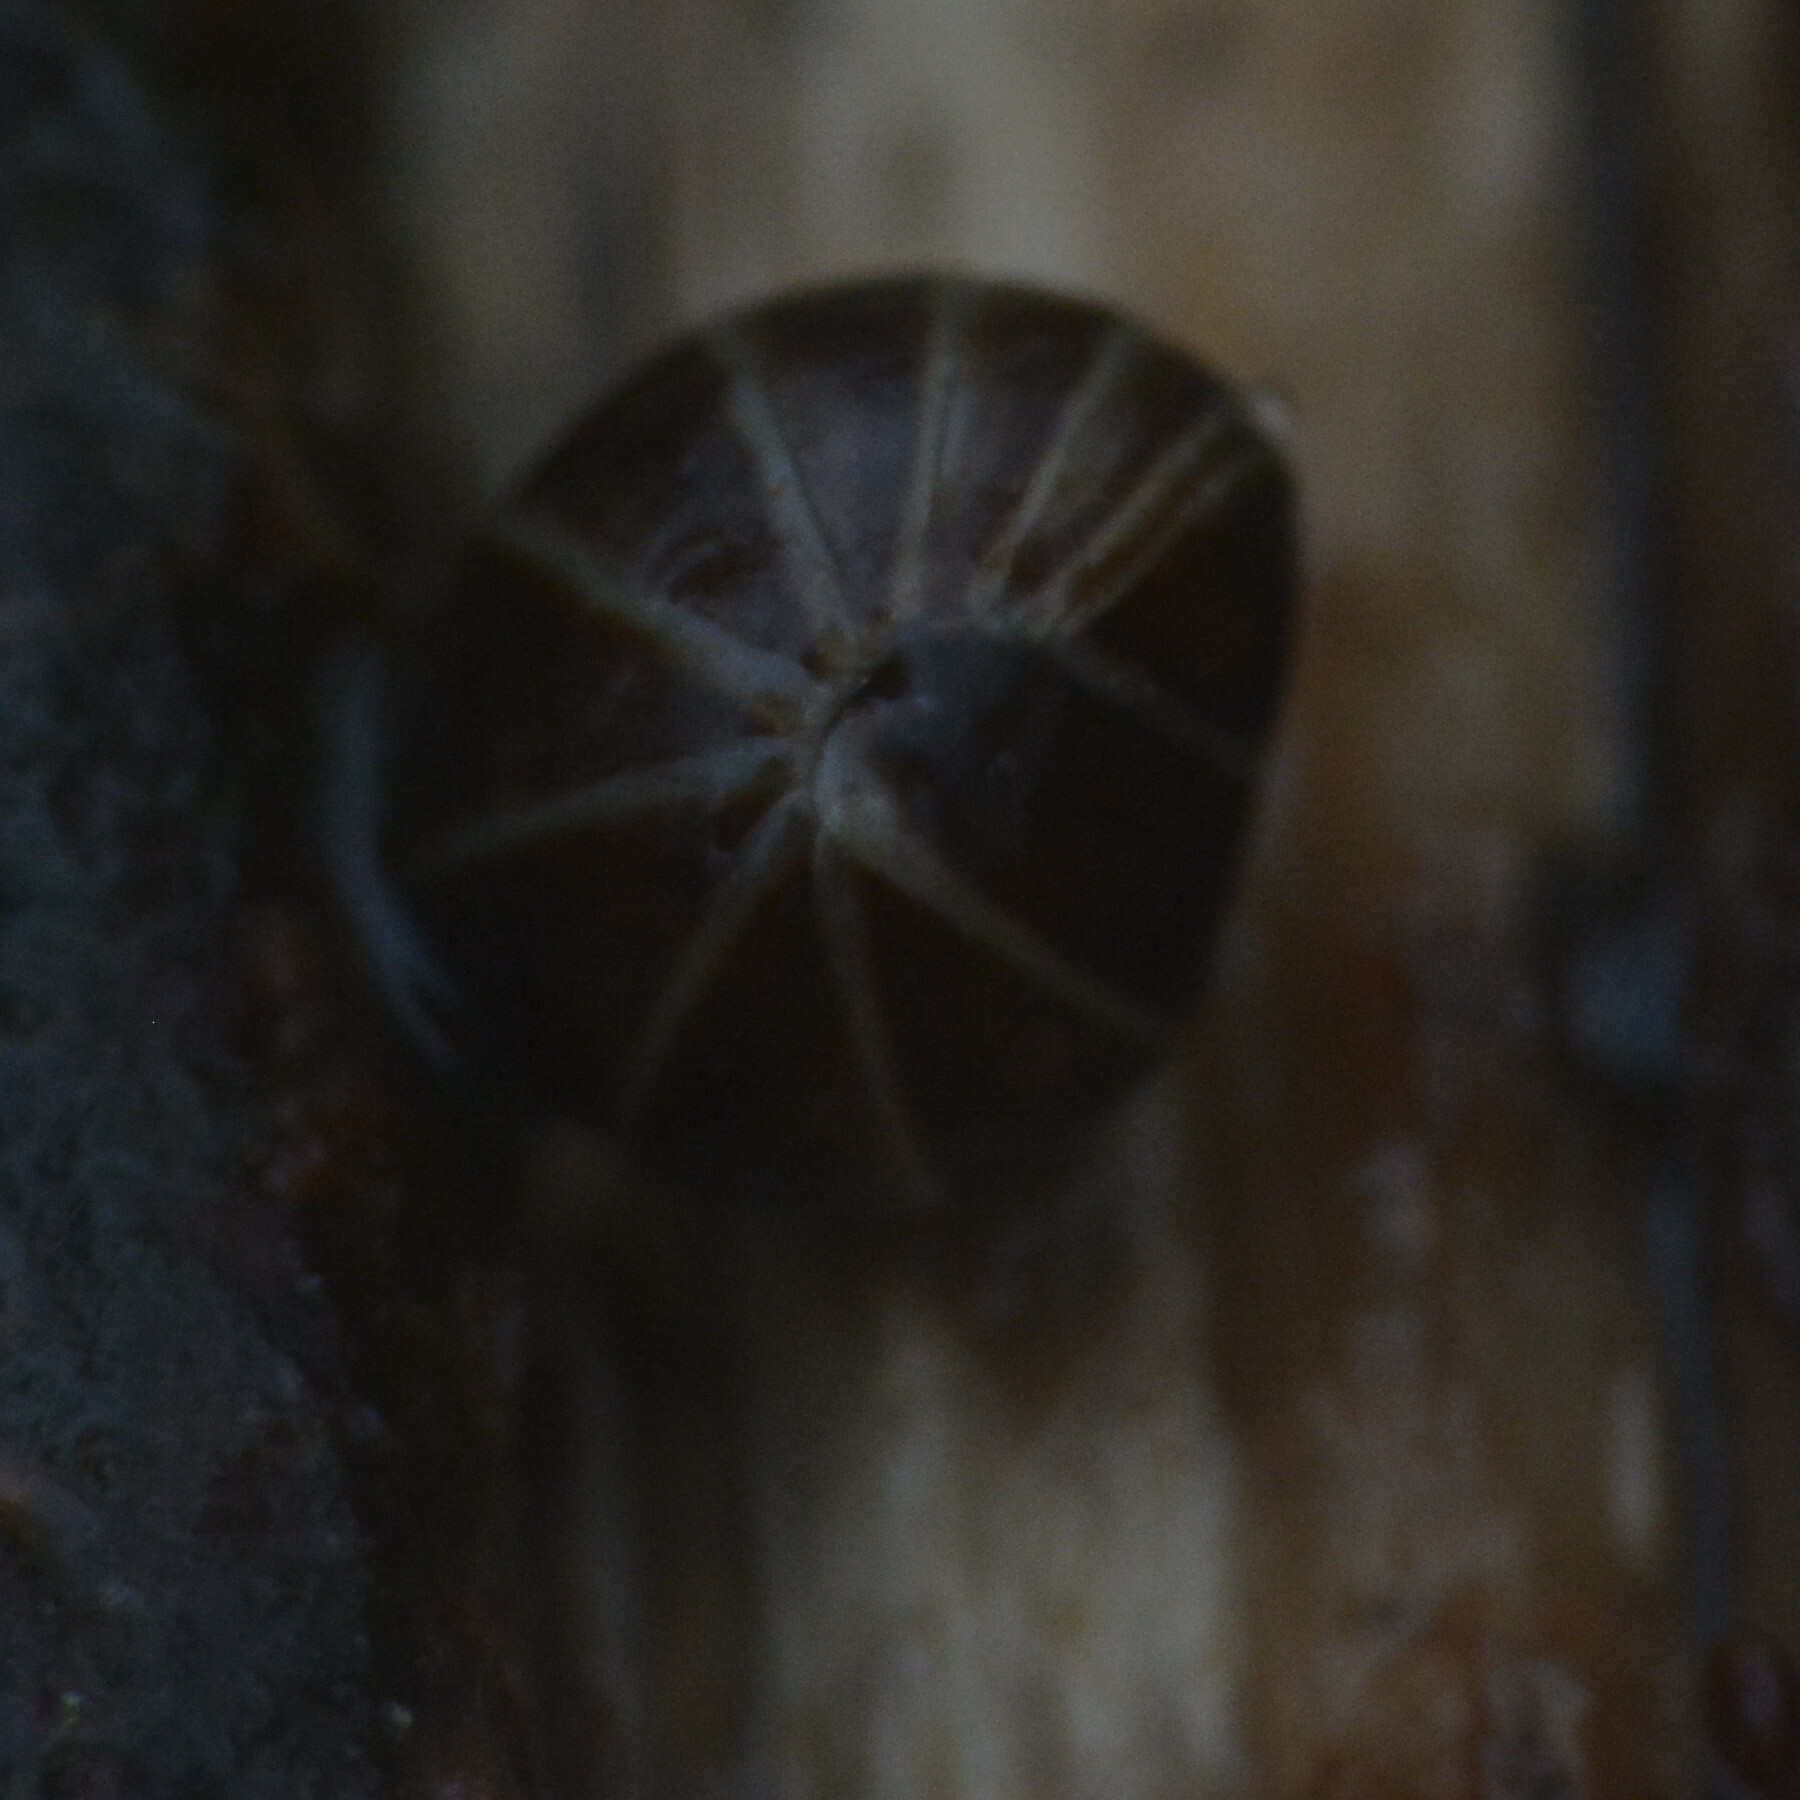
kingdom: Animalia
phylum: Arthropoda
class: Diplopoda
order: Glomerida
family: Glomeridae
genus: Glomeris
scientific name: Glomeris marginata
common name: Bordered pill millipede
